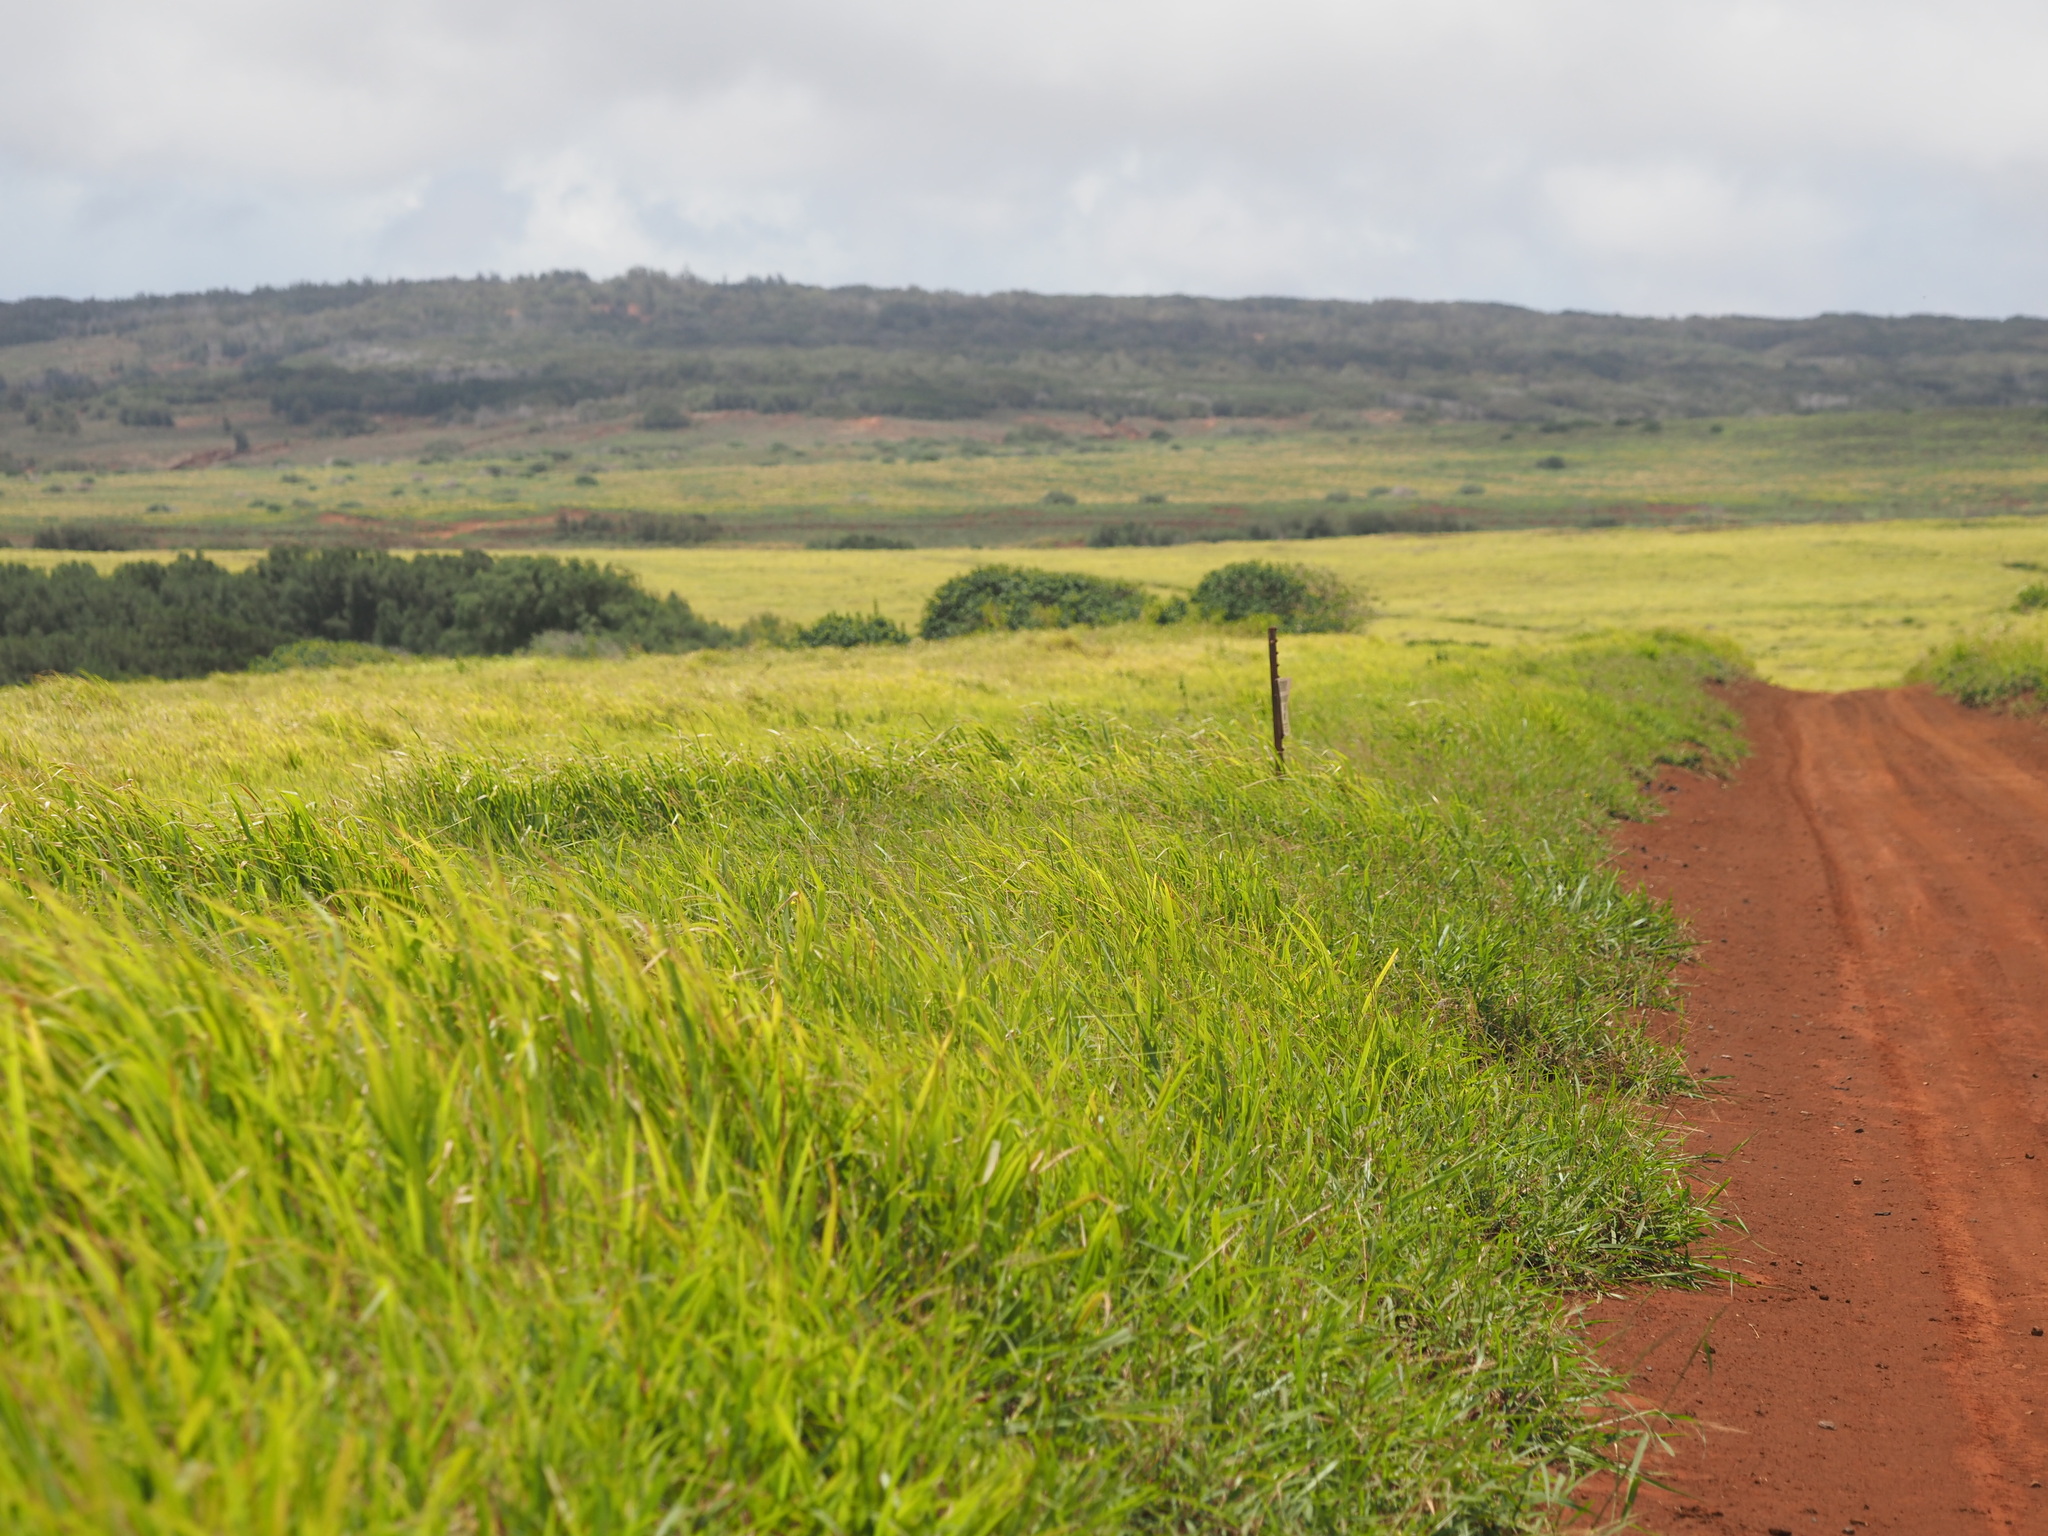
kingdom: Plantae
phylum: Tracheophyta
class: Liliopsida
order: Poales
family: Poaceae
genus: Megathyrsus
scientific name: Megathyrsus maximus
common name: Guineagrass
